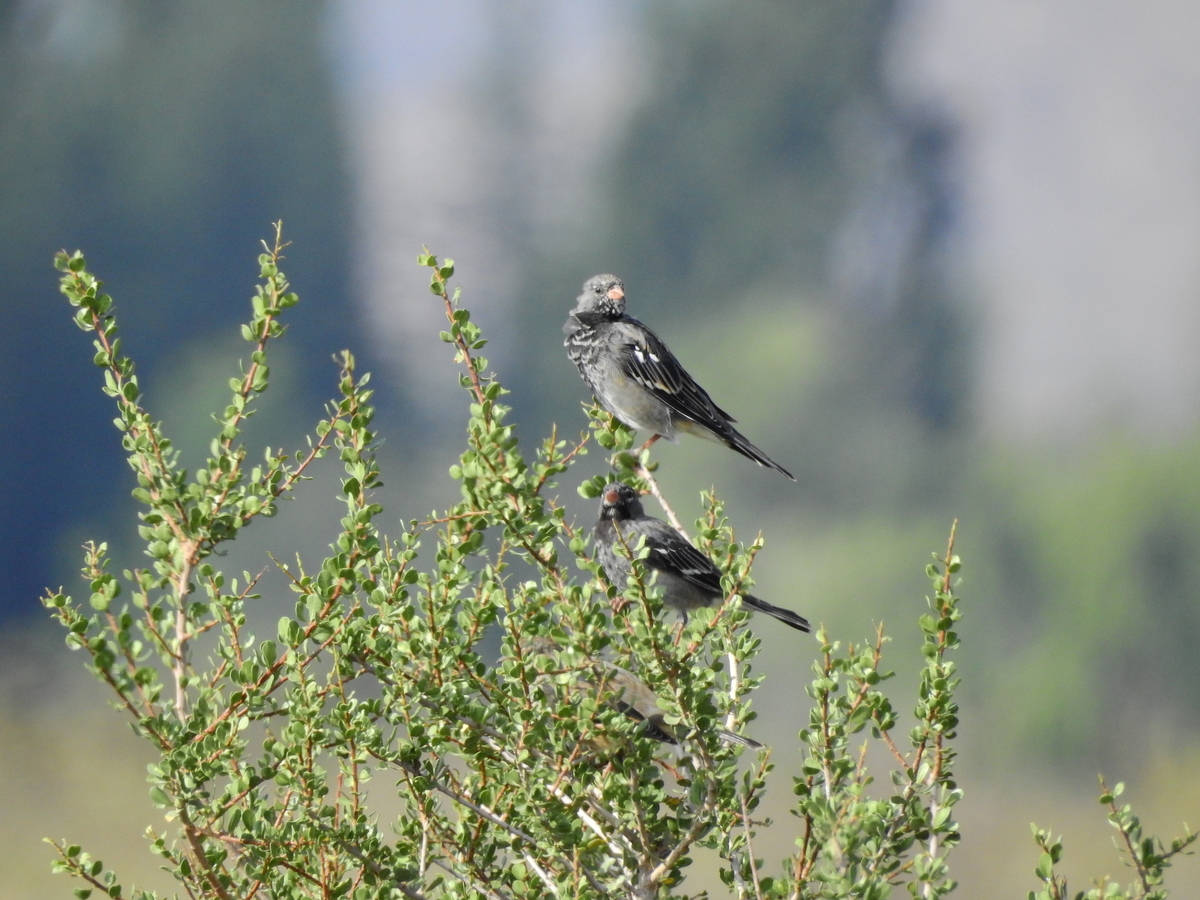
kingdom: Animalia
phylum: Chordata
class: Aves
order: Passeriformes
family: Thraupidae
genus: Rhopospina
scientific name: Rhopospina fruticeti
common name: Mourning sierra finch
